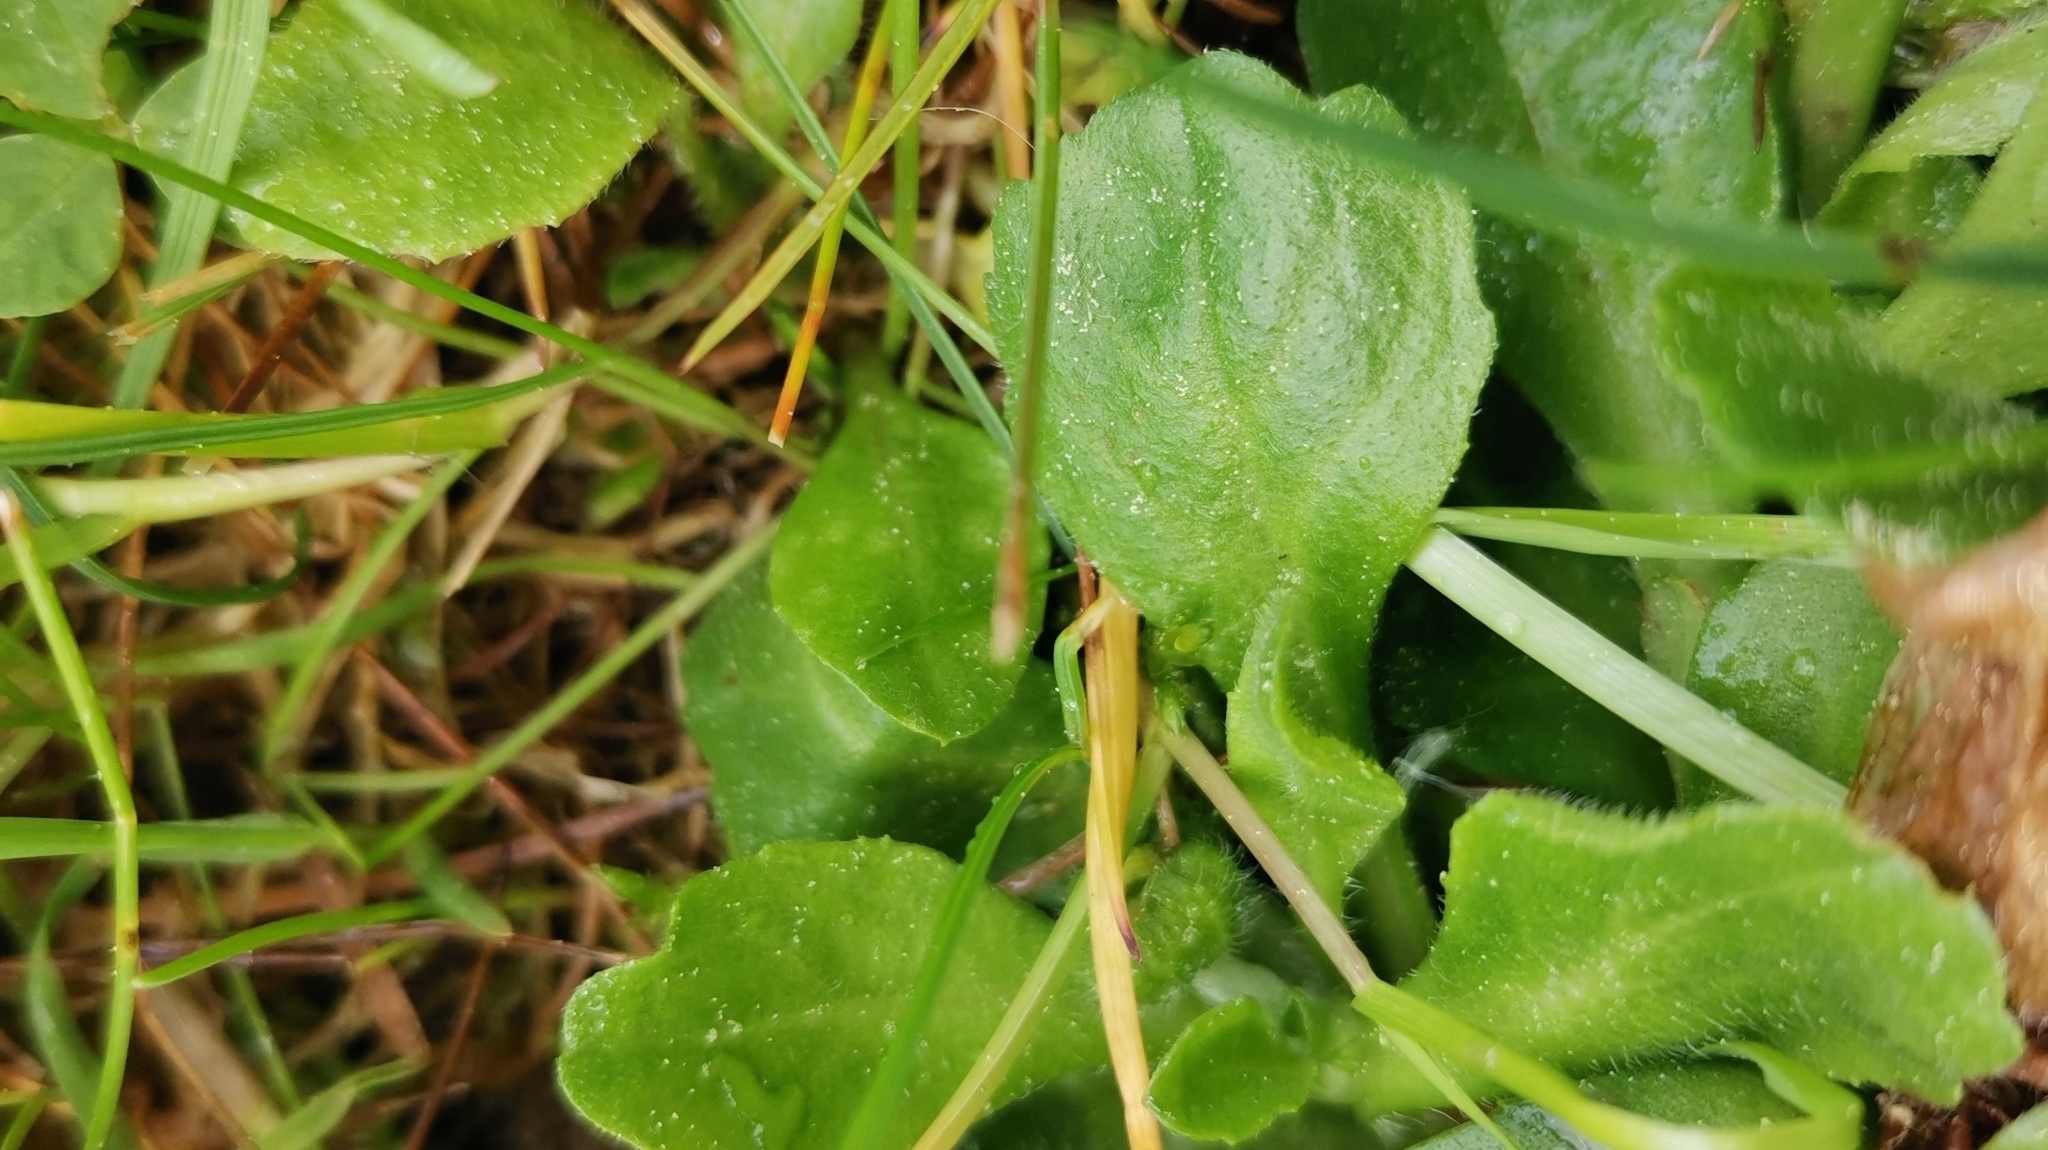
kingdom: Plantae
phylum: Tracheophyta
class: Magnoliopsida
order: Asterales
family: Asteraceae
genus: Bellis
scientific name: Bellis perennis
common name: Lawndaisy
